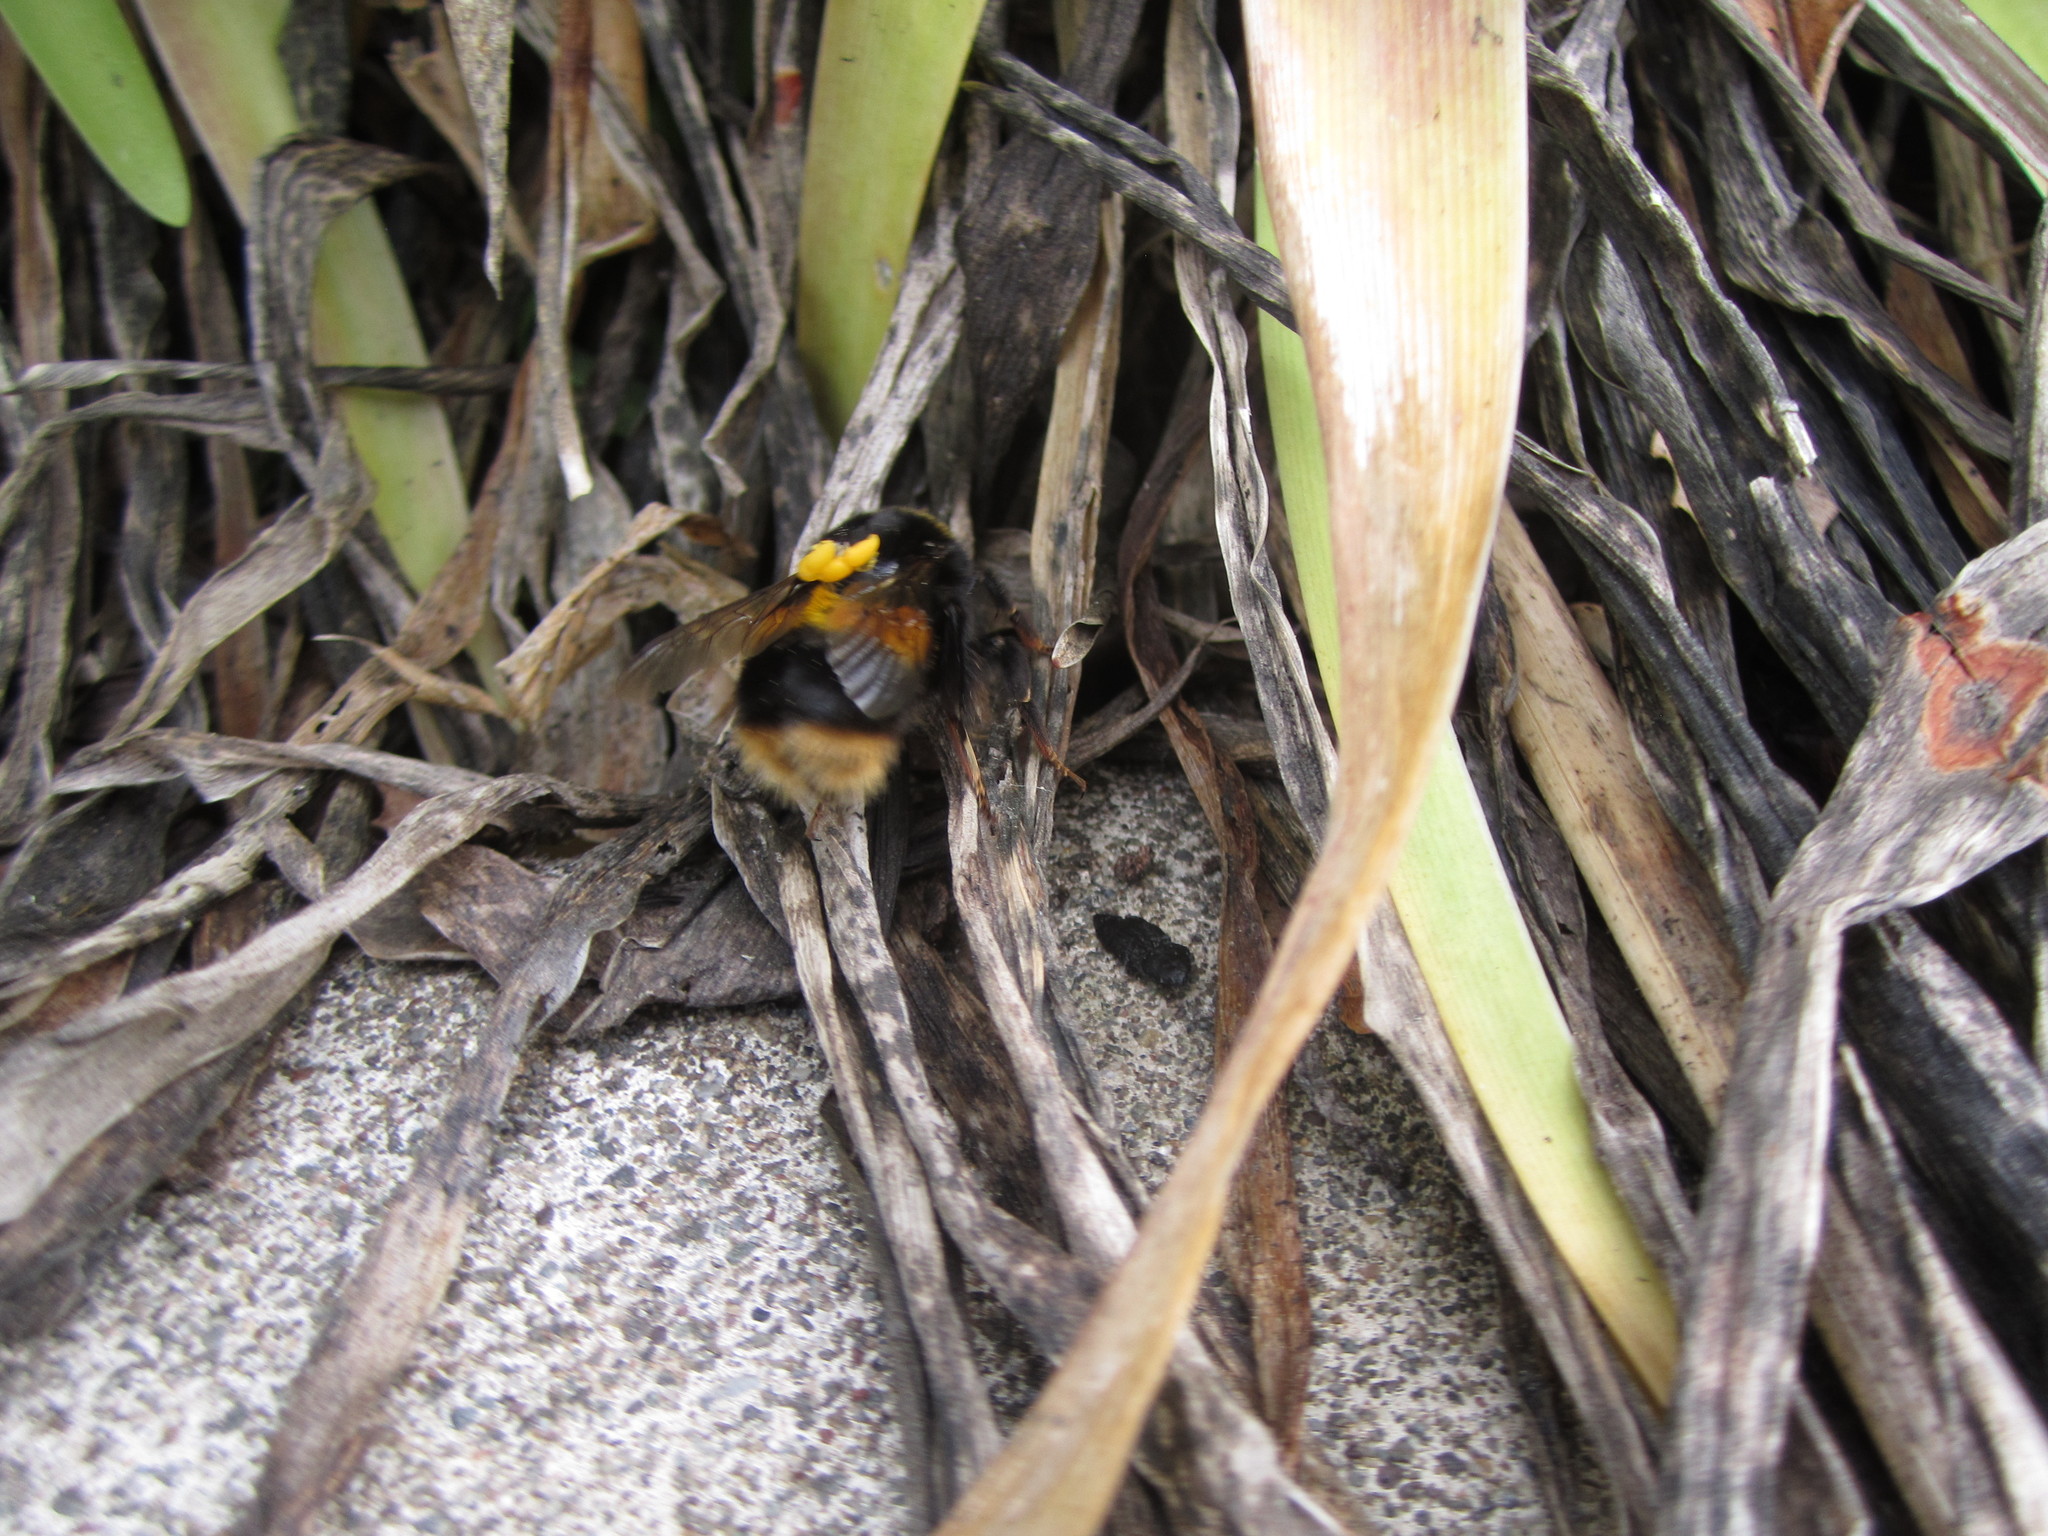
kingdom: Animalia
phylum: Arthropoda
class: Insecta
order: Hymenoptera
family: Apidae
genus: Bombus
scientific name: Bombus terrestris
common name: Buff-tailed bumblebee
